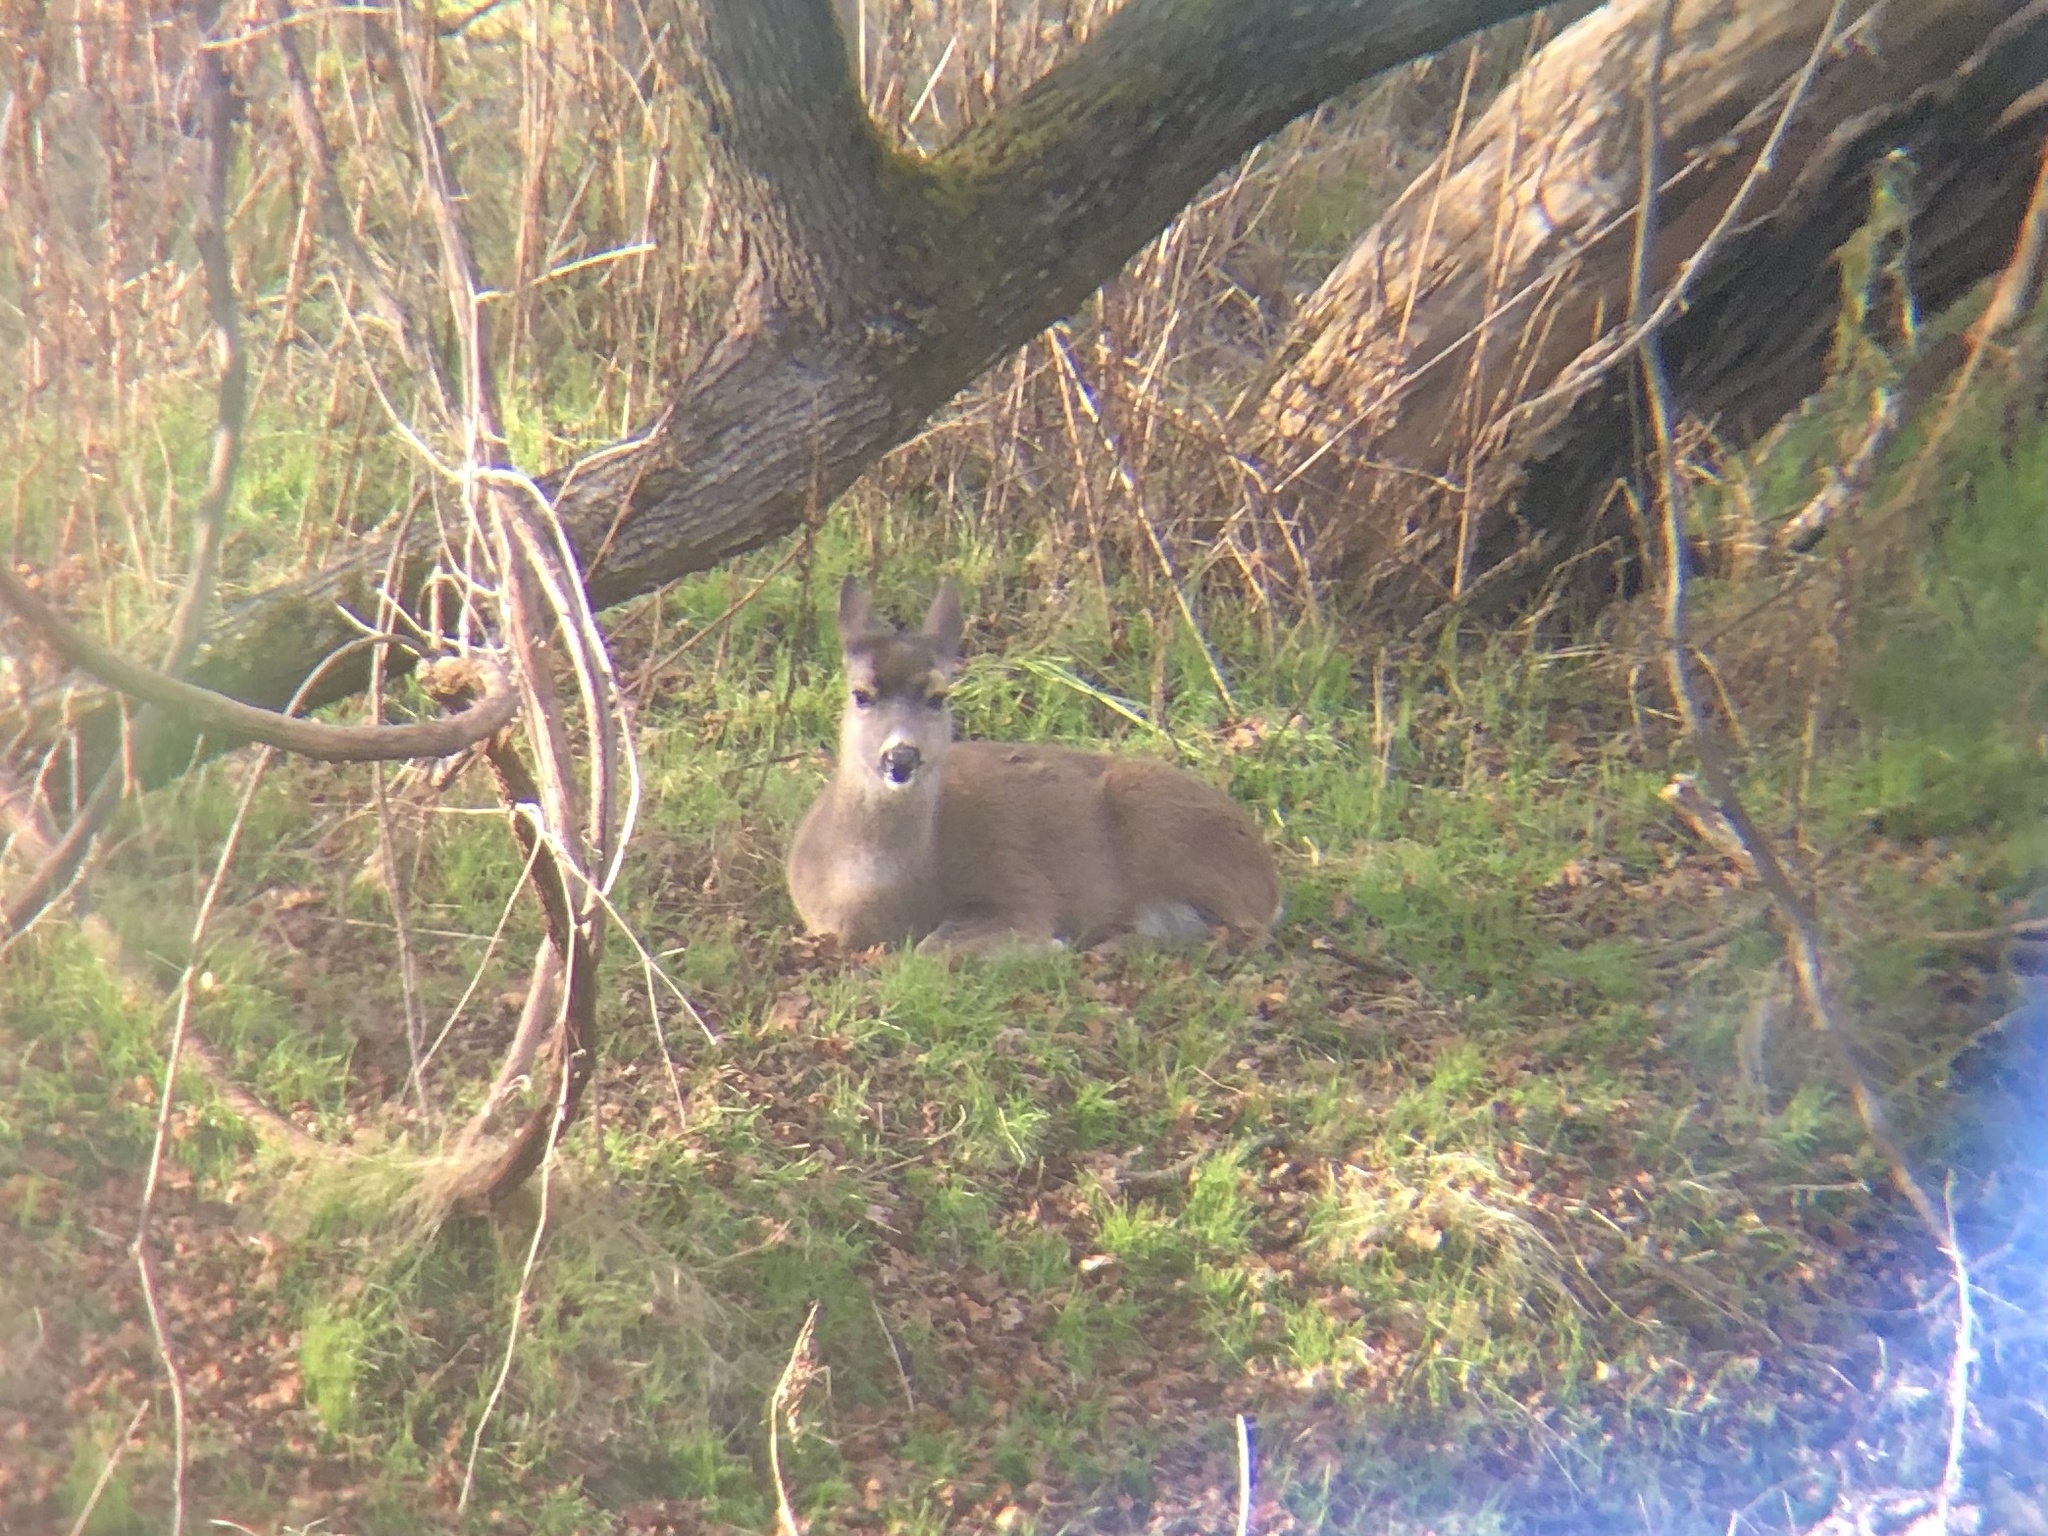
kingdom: Animalia
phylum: Chordata
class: Mammalia
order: Artiodactyla
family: Cervidae
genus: Odocoileus
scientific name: Odocoileus hemionus
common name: Mule deer
